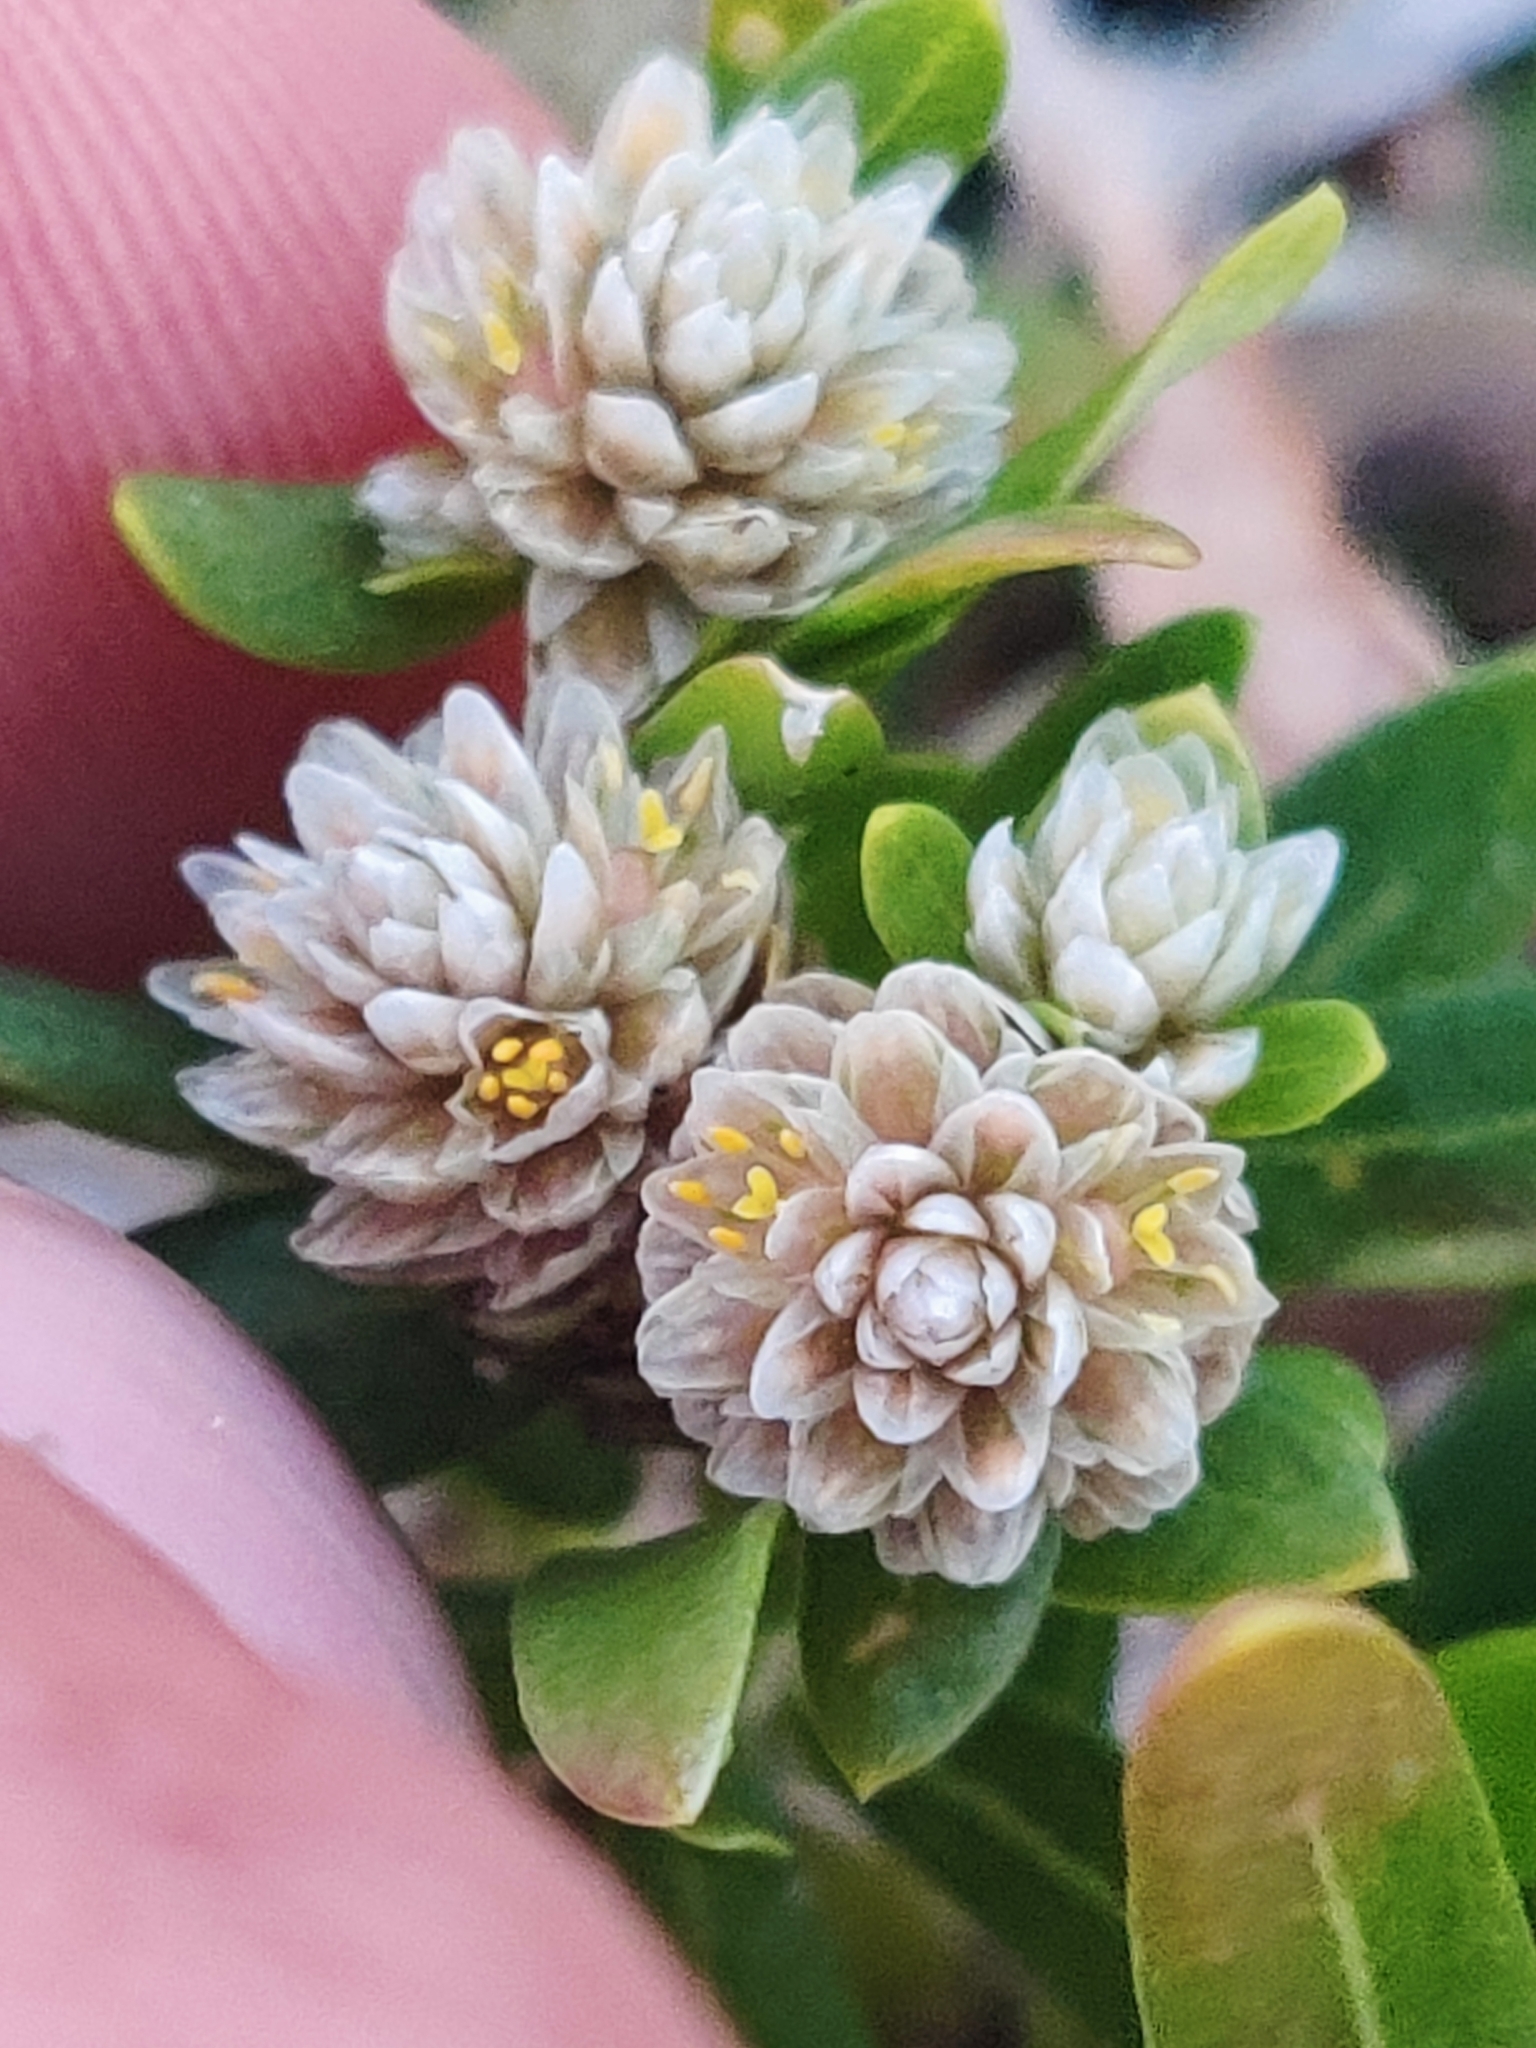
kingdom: Plantae
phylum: Tracheophyta
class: Magnoliopsida
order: Caryophyllales
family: Amaranthaceae
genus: Gomphrena
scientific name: Gomphrena vermicularis
